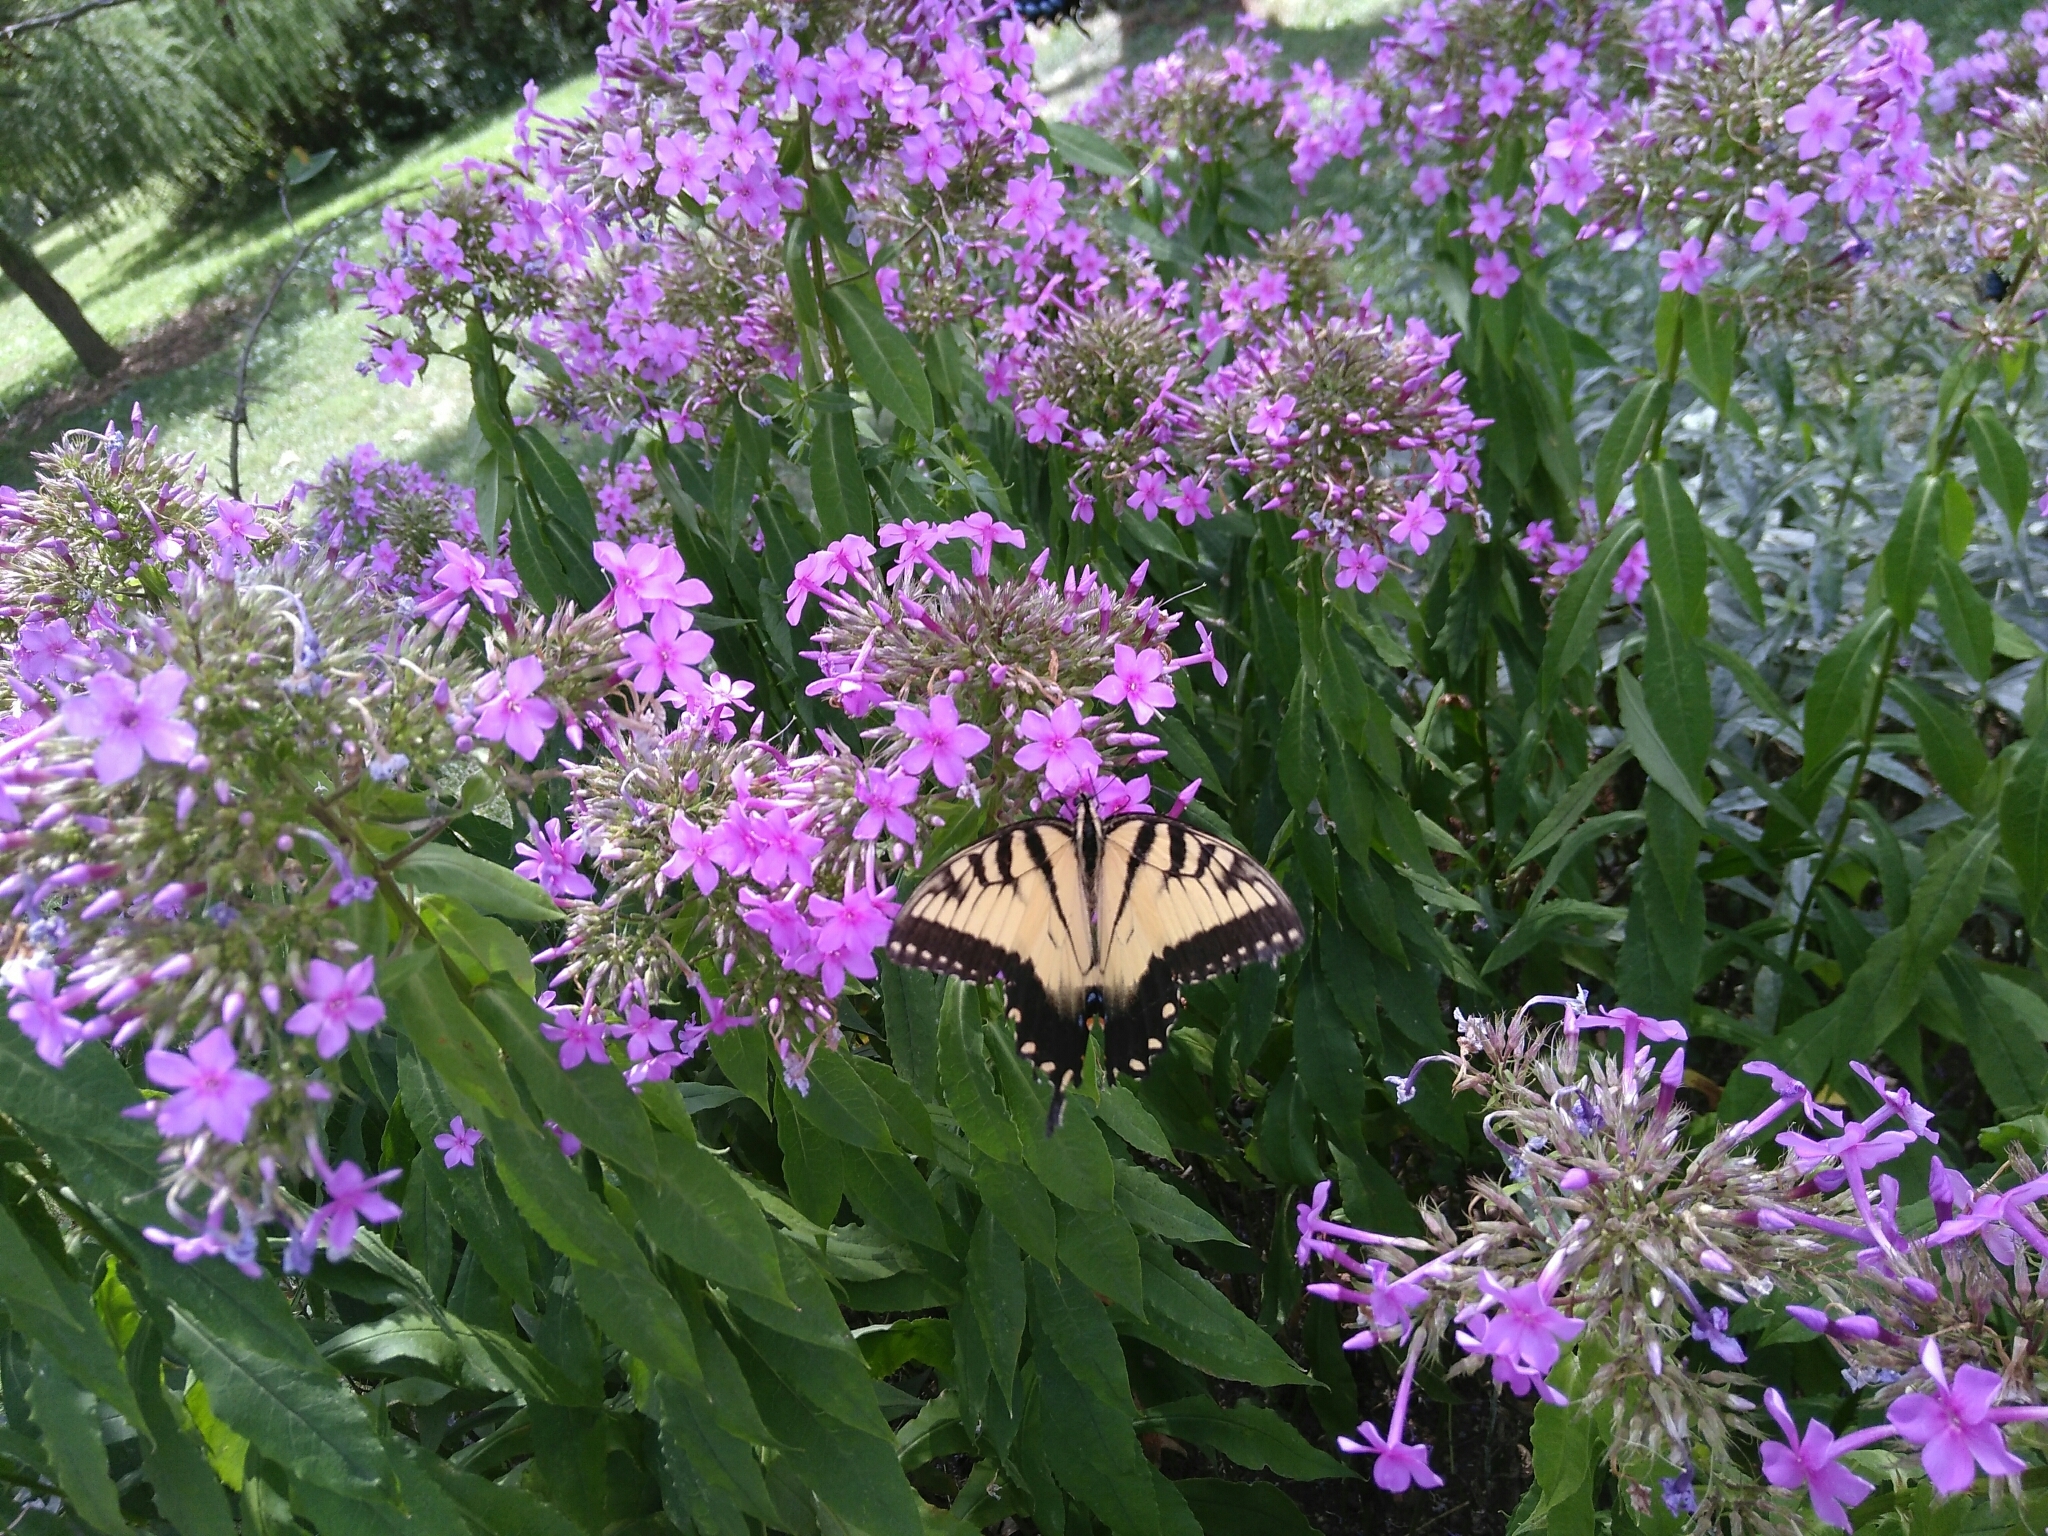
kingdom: Animalia
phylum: Arthropoda
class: Insecta
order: Lepidoptera
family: Papilionidae
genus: Papilio
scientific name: Papilio glaucus
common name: Tiger swallowtail
